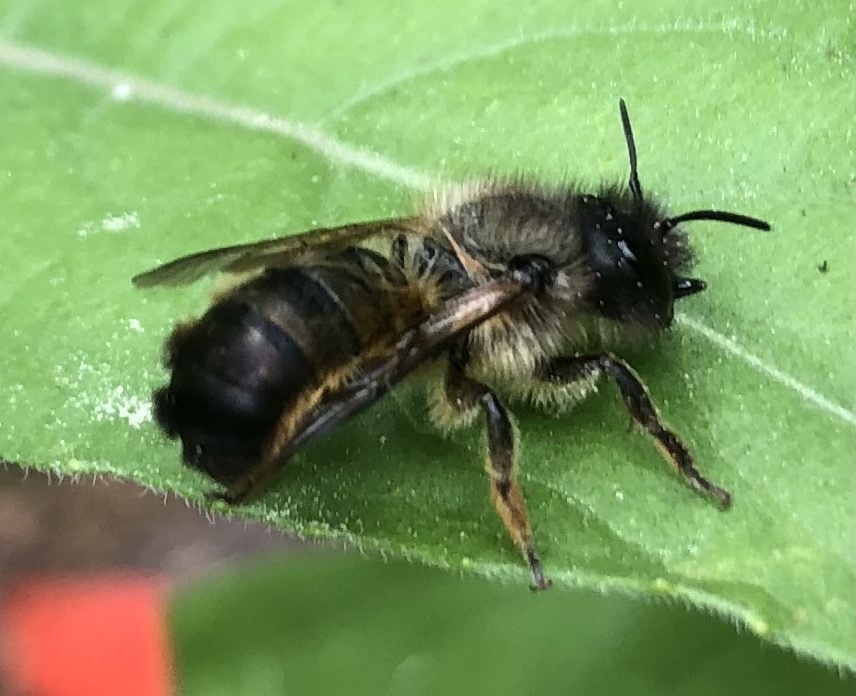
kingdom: Animalia
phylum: Arthropoda
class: Insecta
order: Hymenoptera
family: Megachilidae
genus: Osmia
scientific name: Osmia bicornis
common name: Red mason bee
